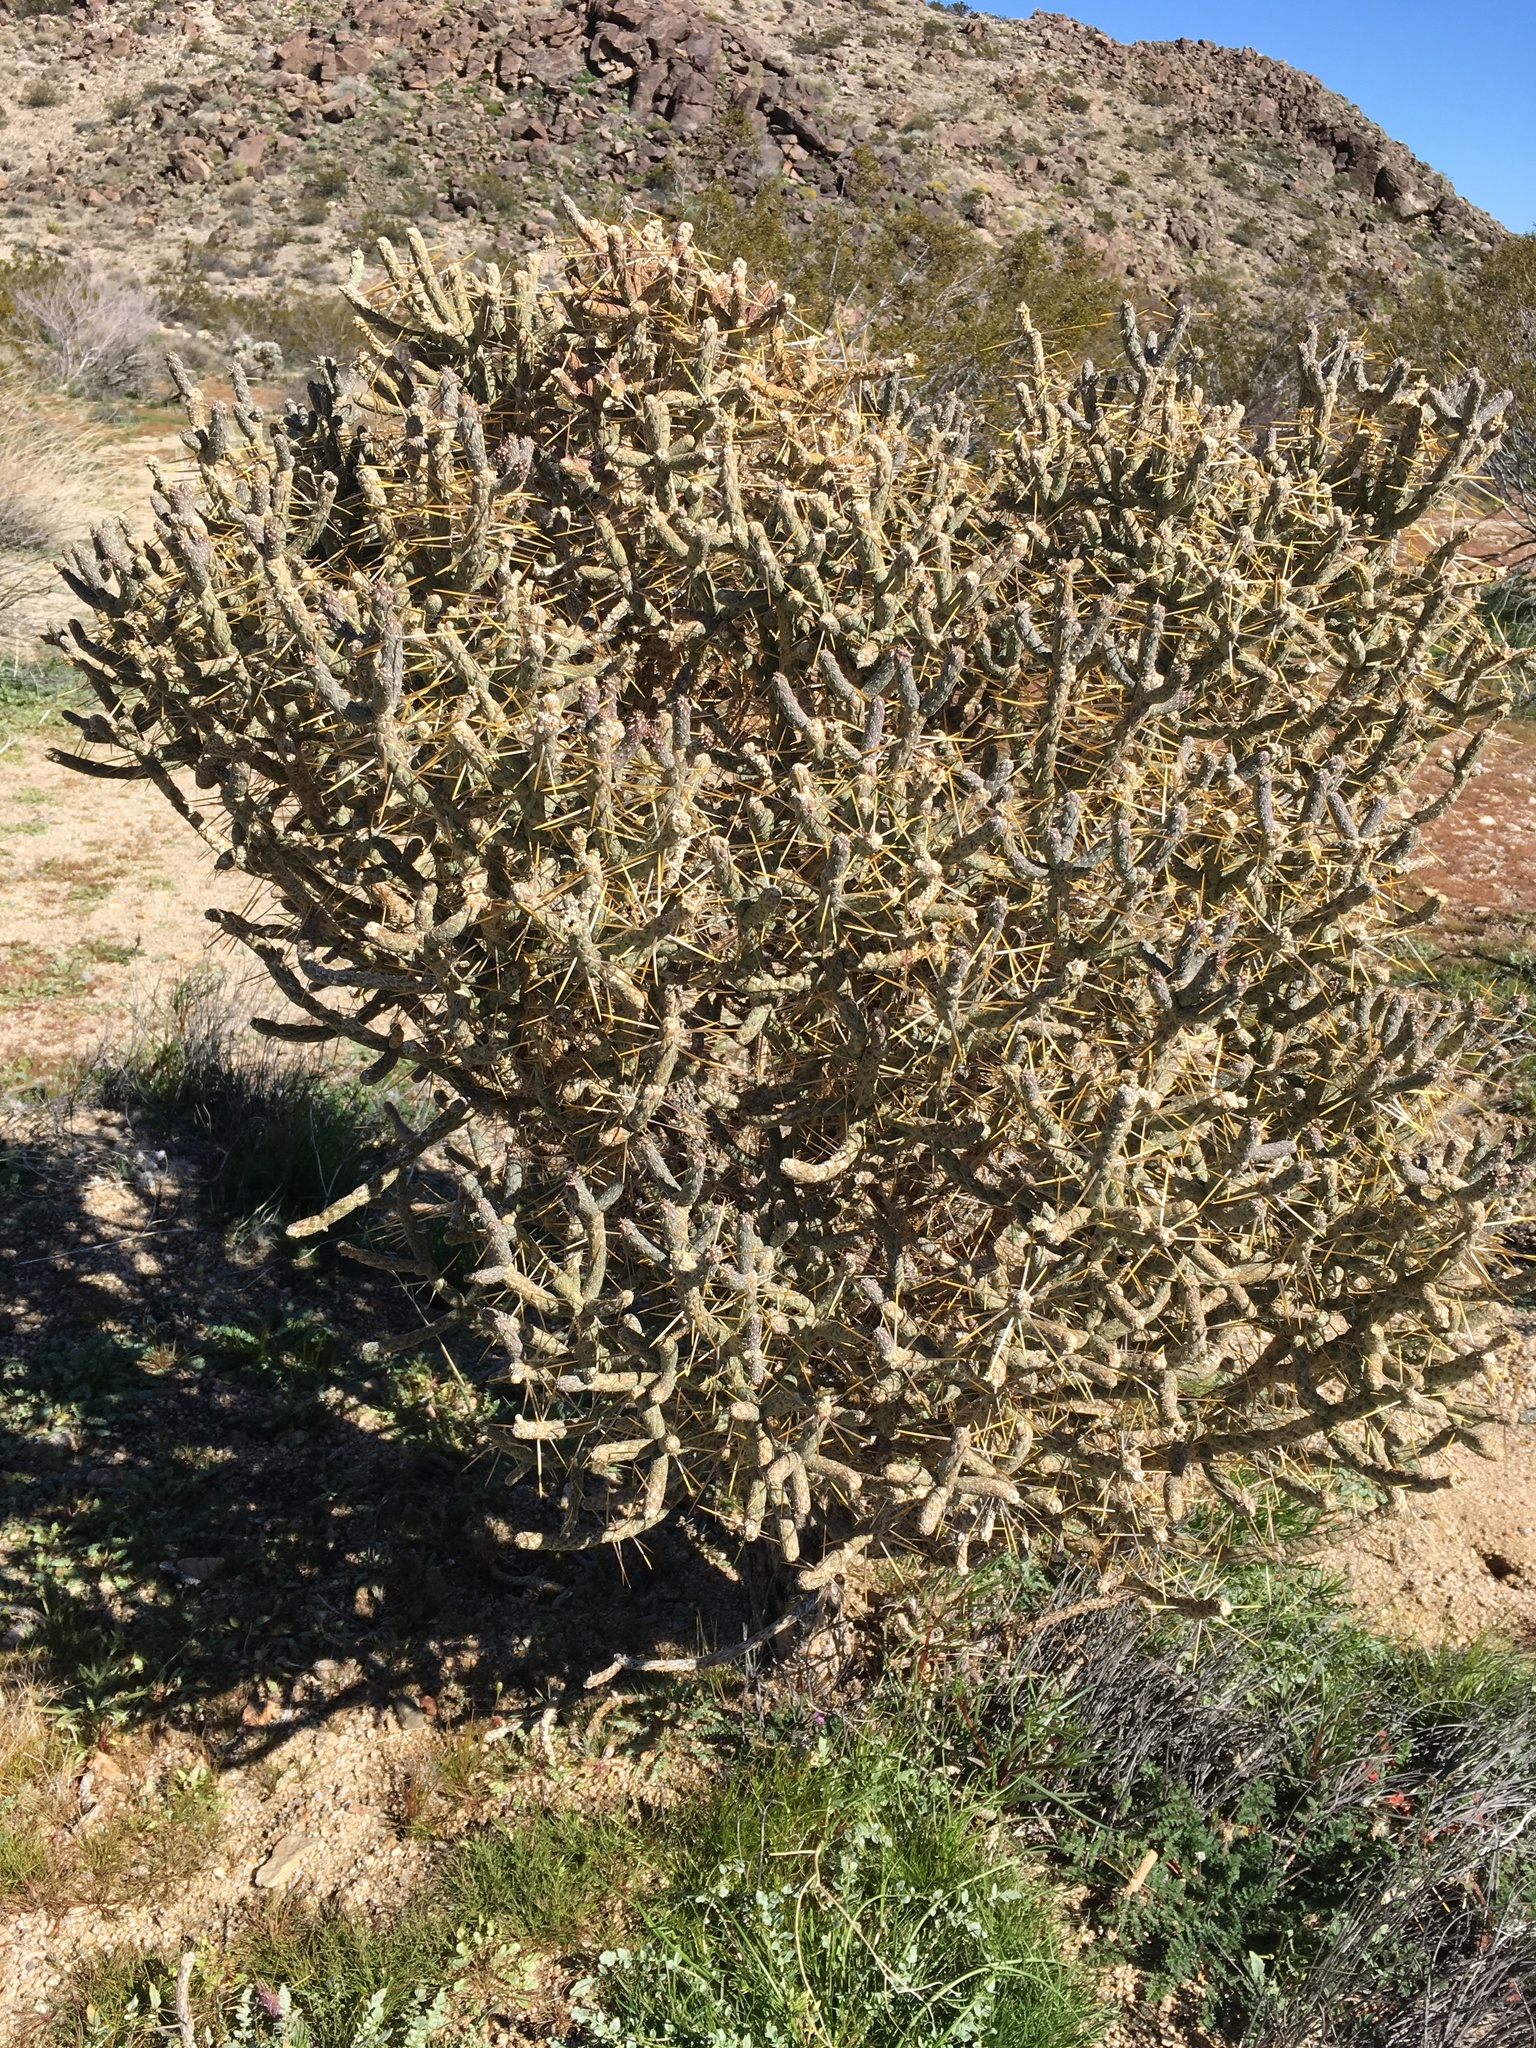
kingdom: Plantae
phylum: Tracheophyta
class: Magnoliopsida
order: Caryophyllales
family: Cactaceae
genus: Cylindropuntia
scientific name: Cylindropuntia ramosissima
